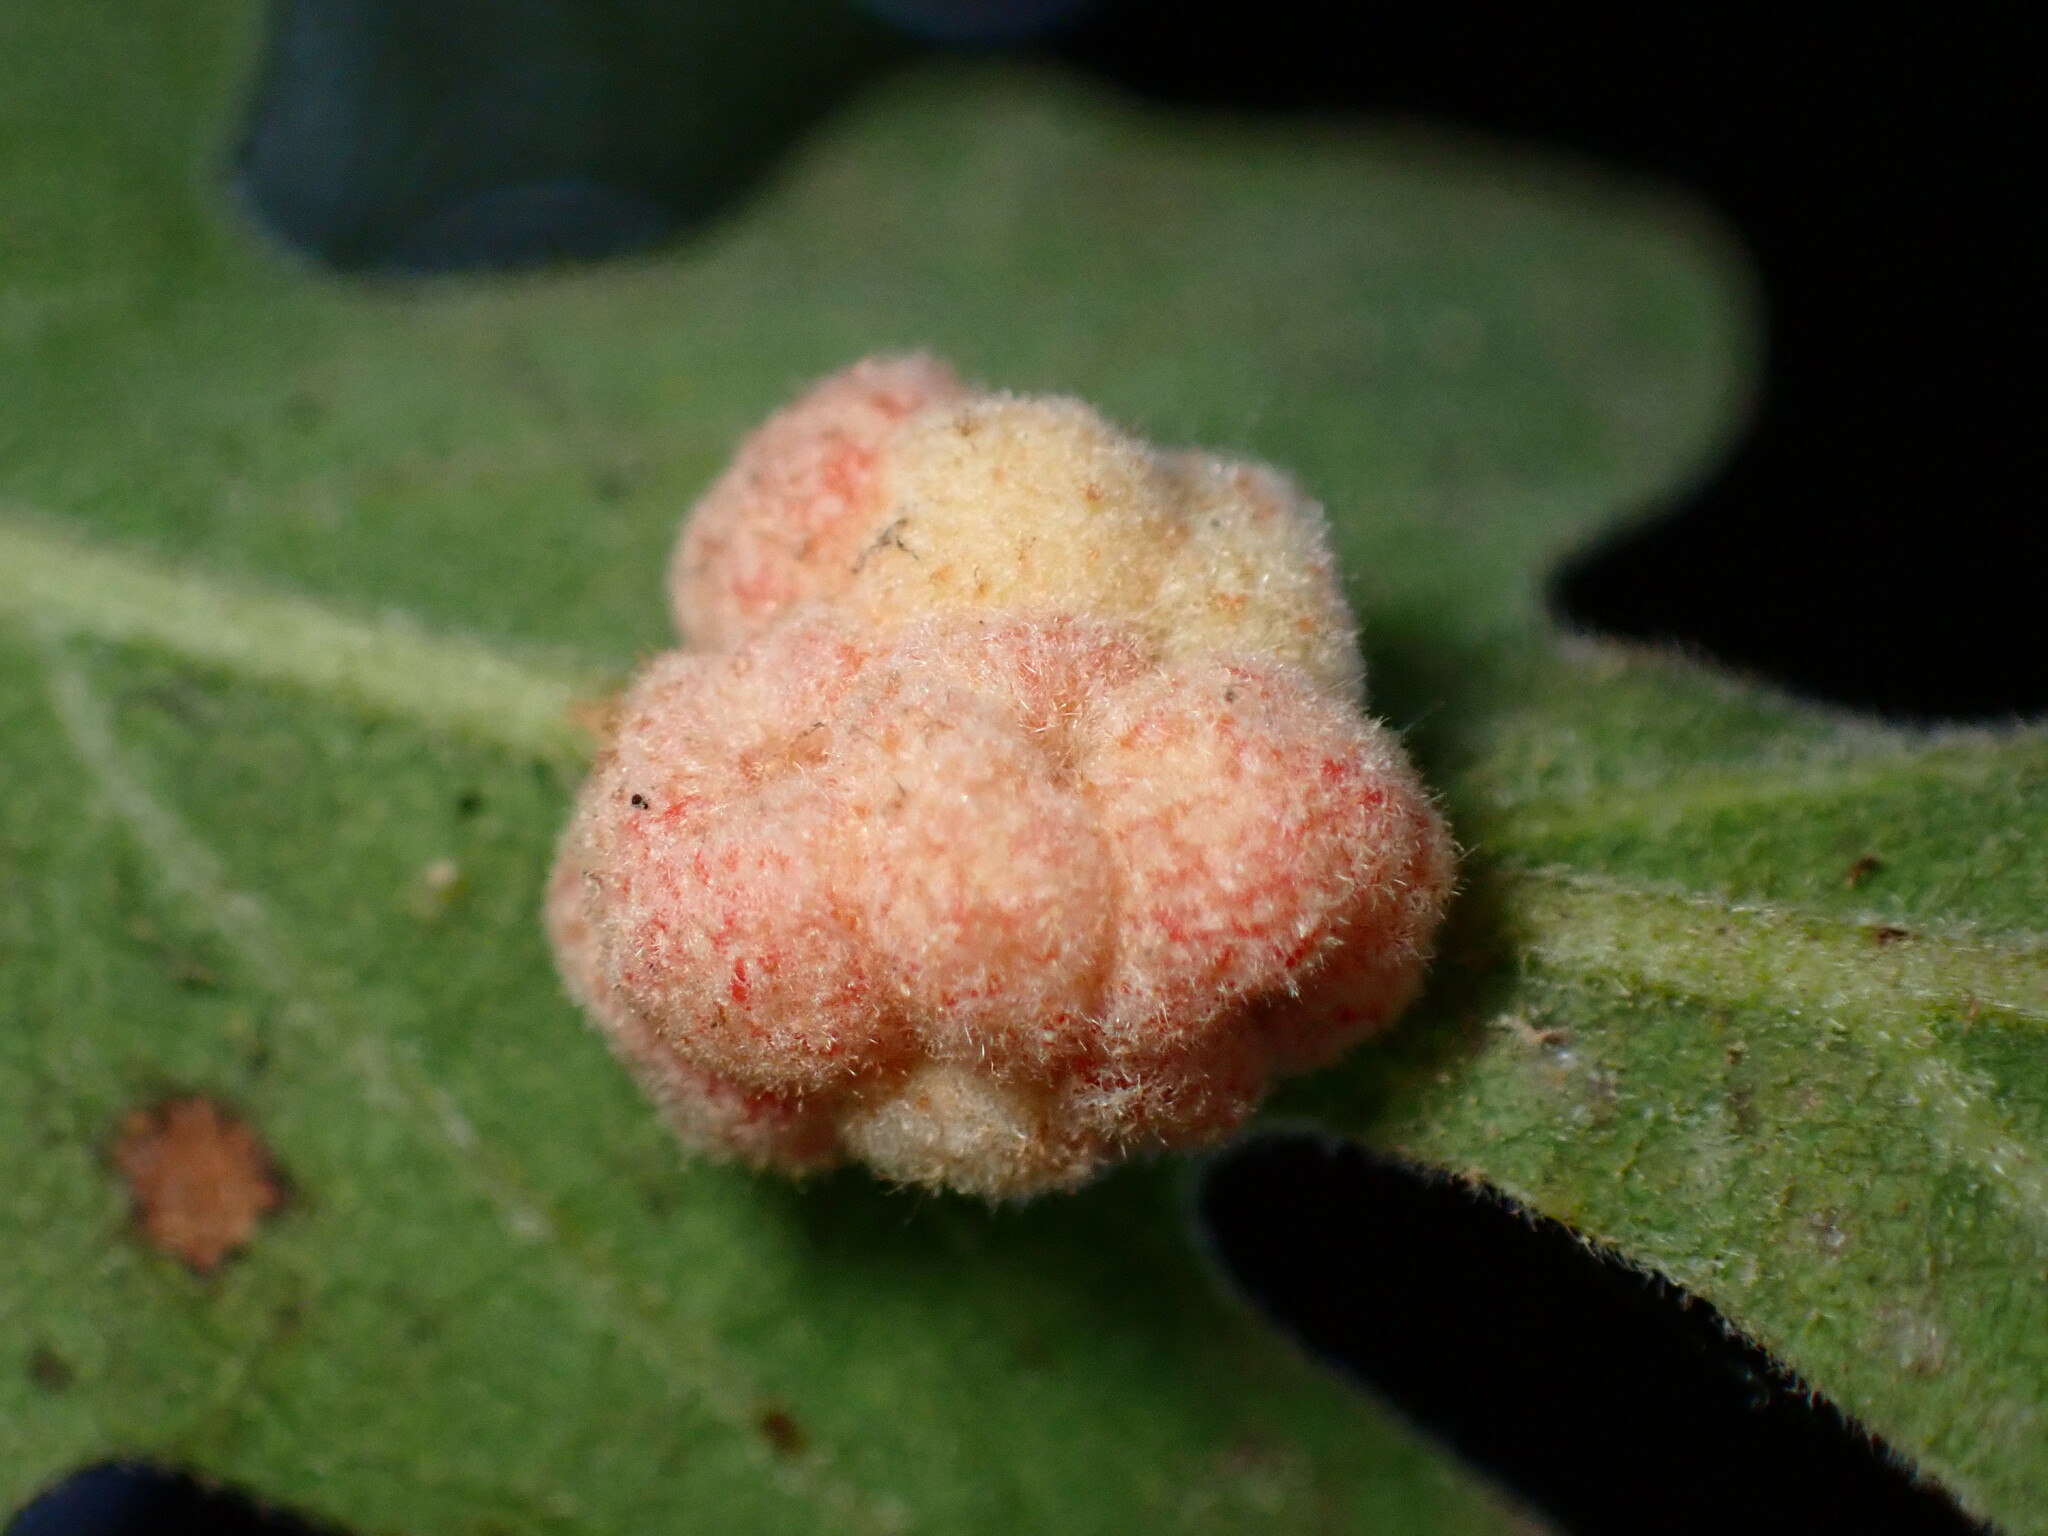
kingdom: Animalia
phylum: Arthropoda
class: Insecta
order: Hymenoptera
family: Cynipidae
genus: Andricus
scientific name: Andricus
